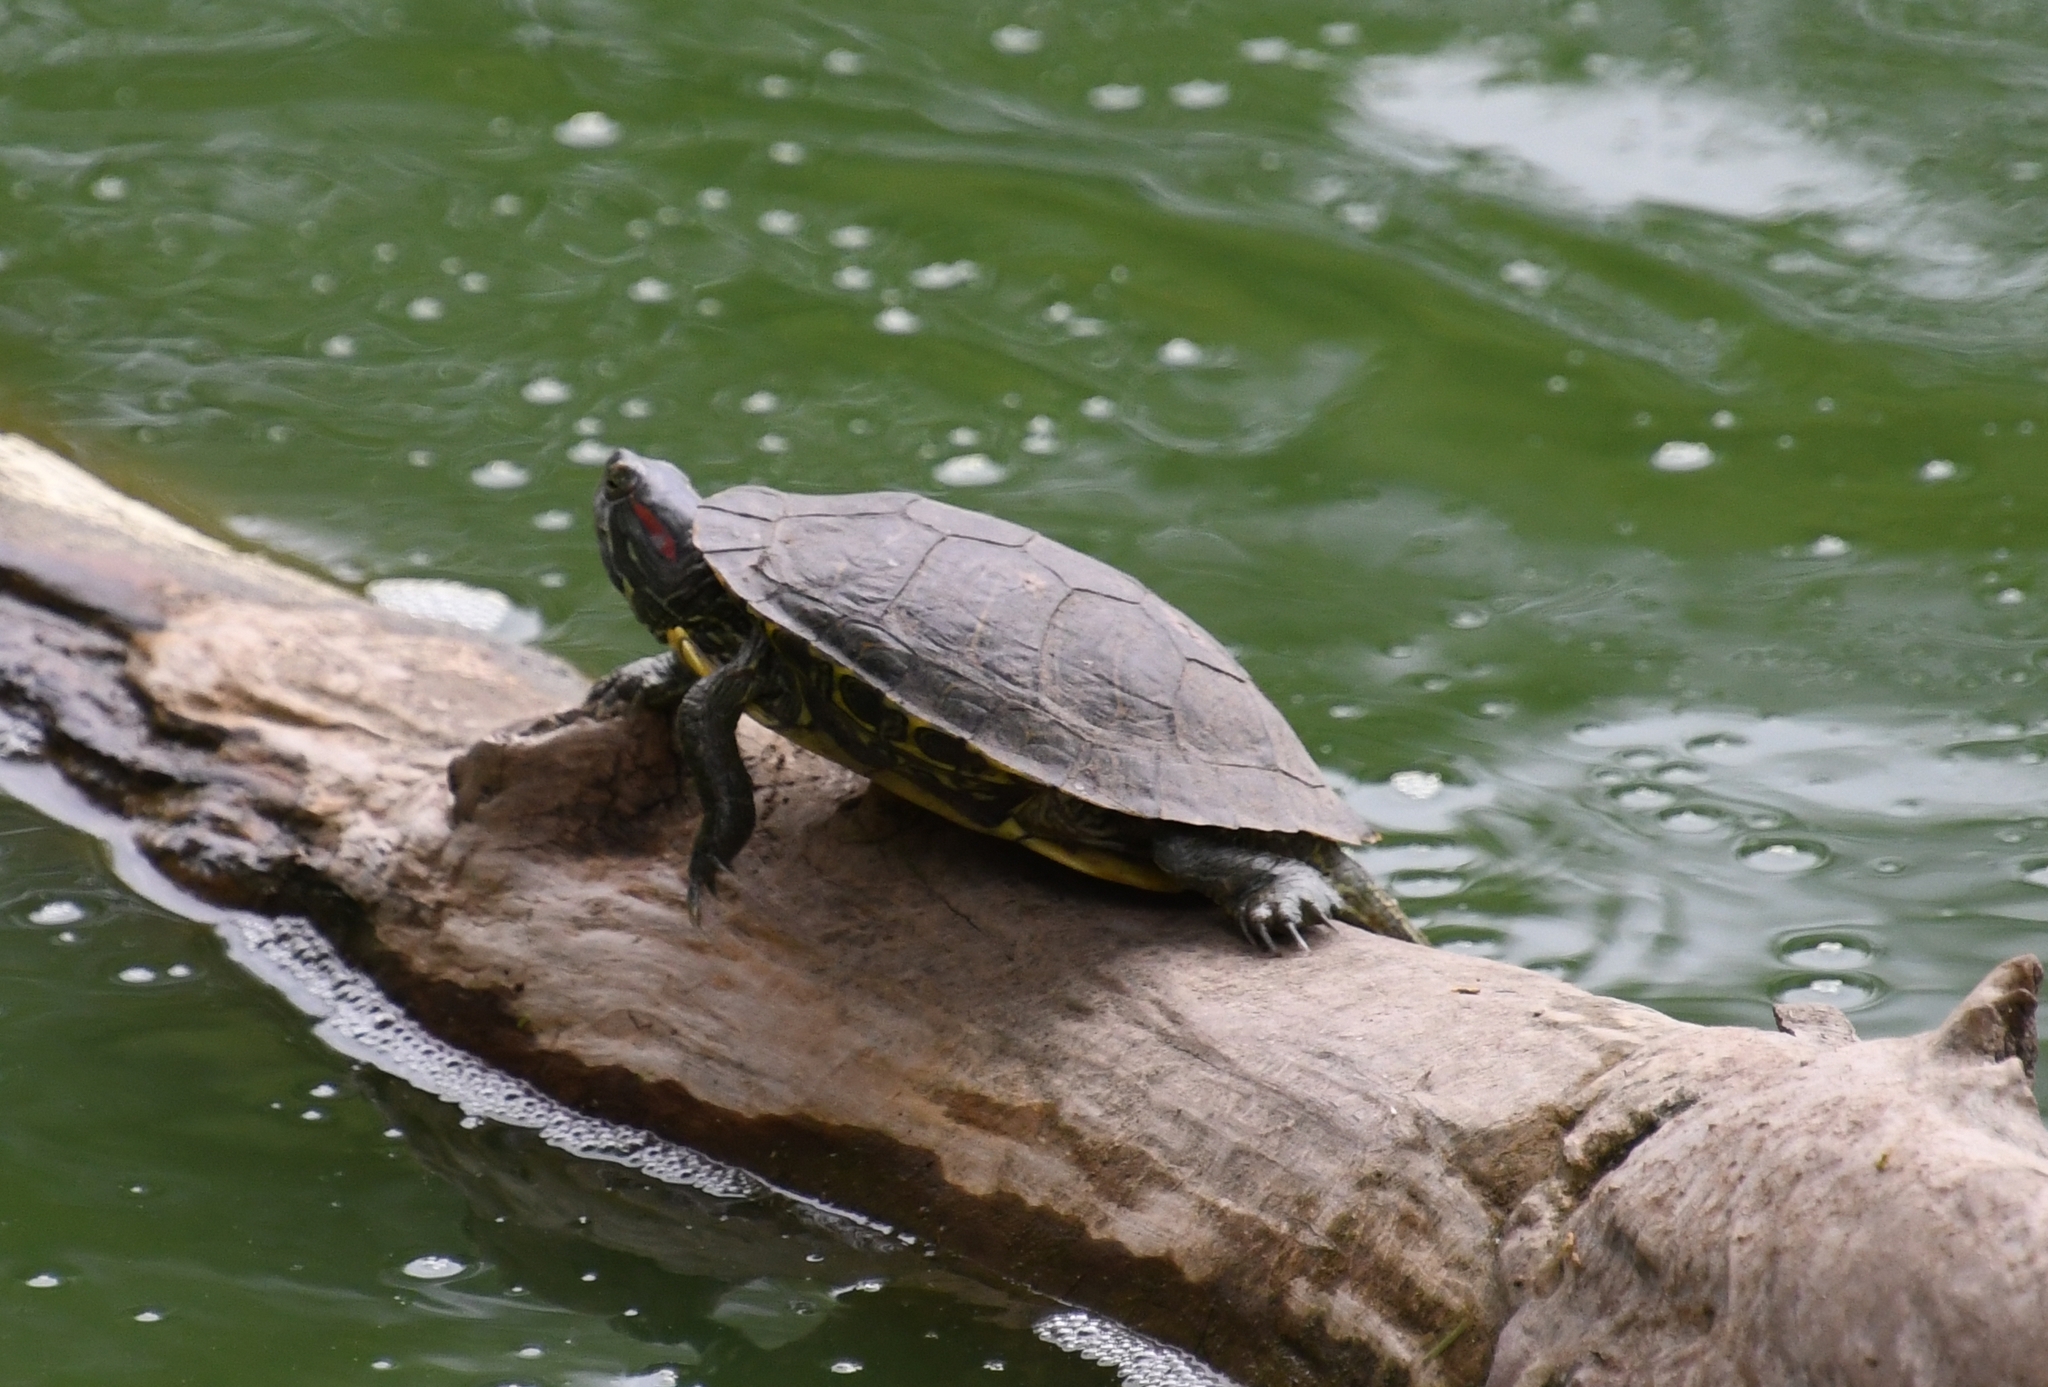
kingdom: Animalia
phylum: Chordata
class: Testudines
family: Emydidae
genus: Trachemys
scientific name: Trachemys scripta
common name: Slider
